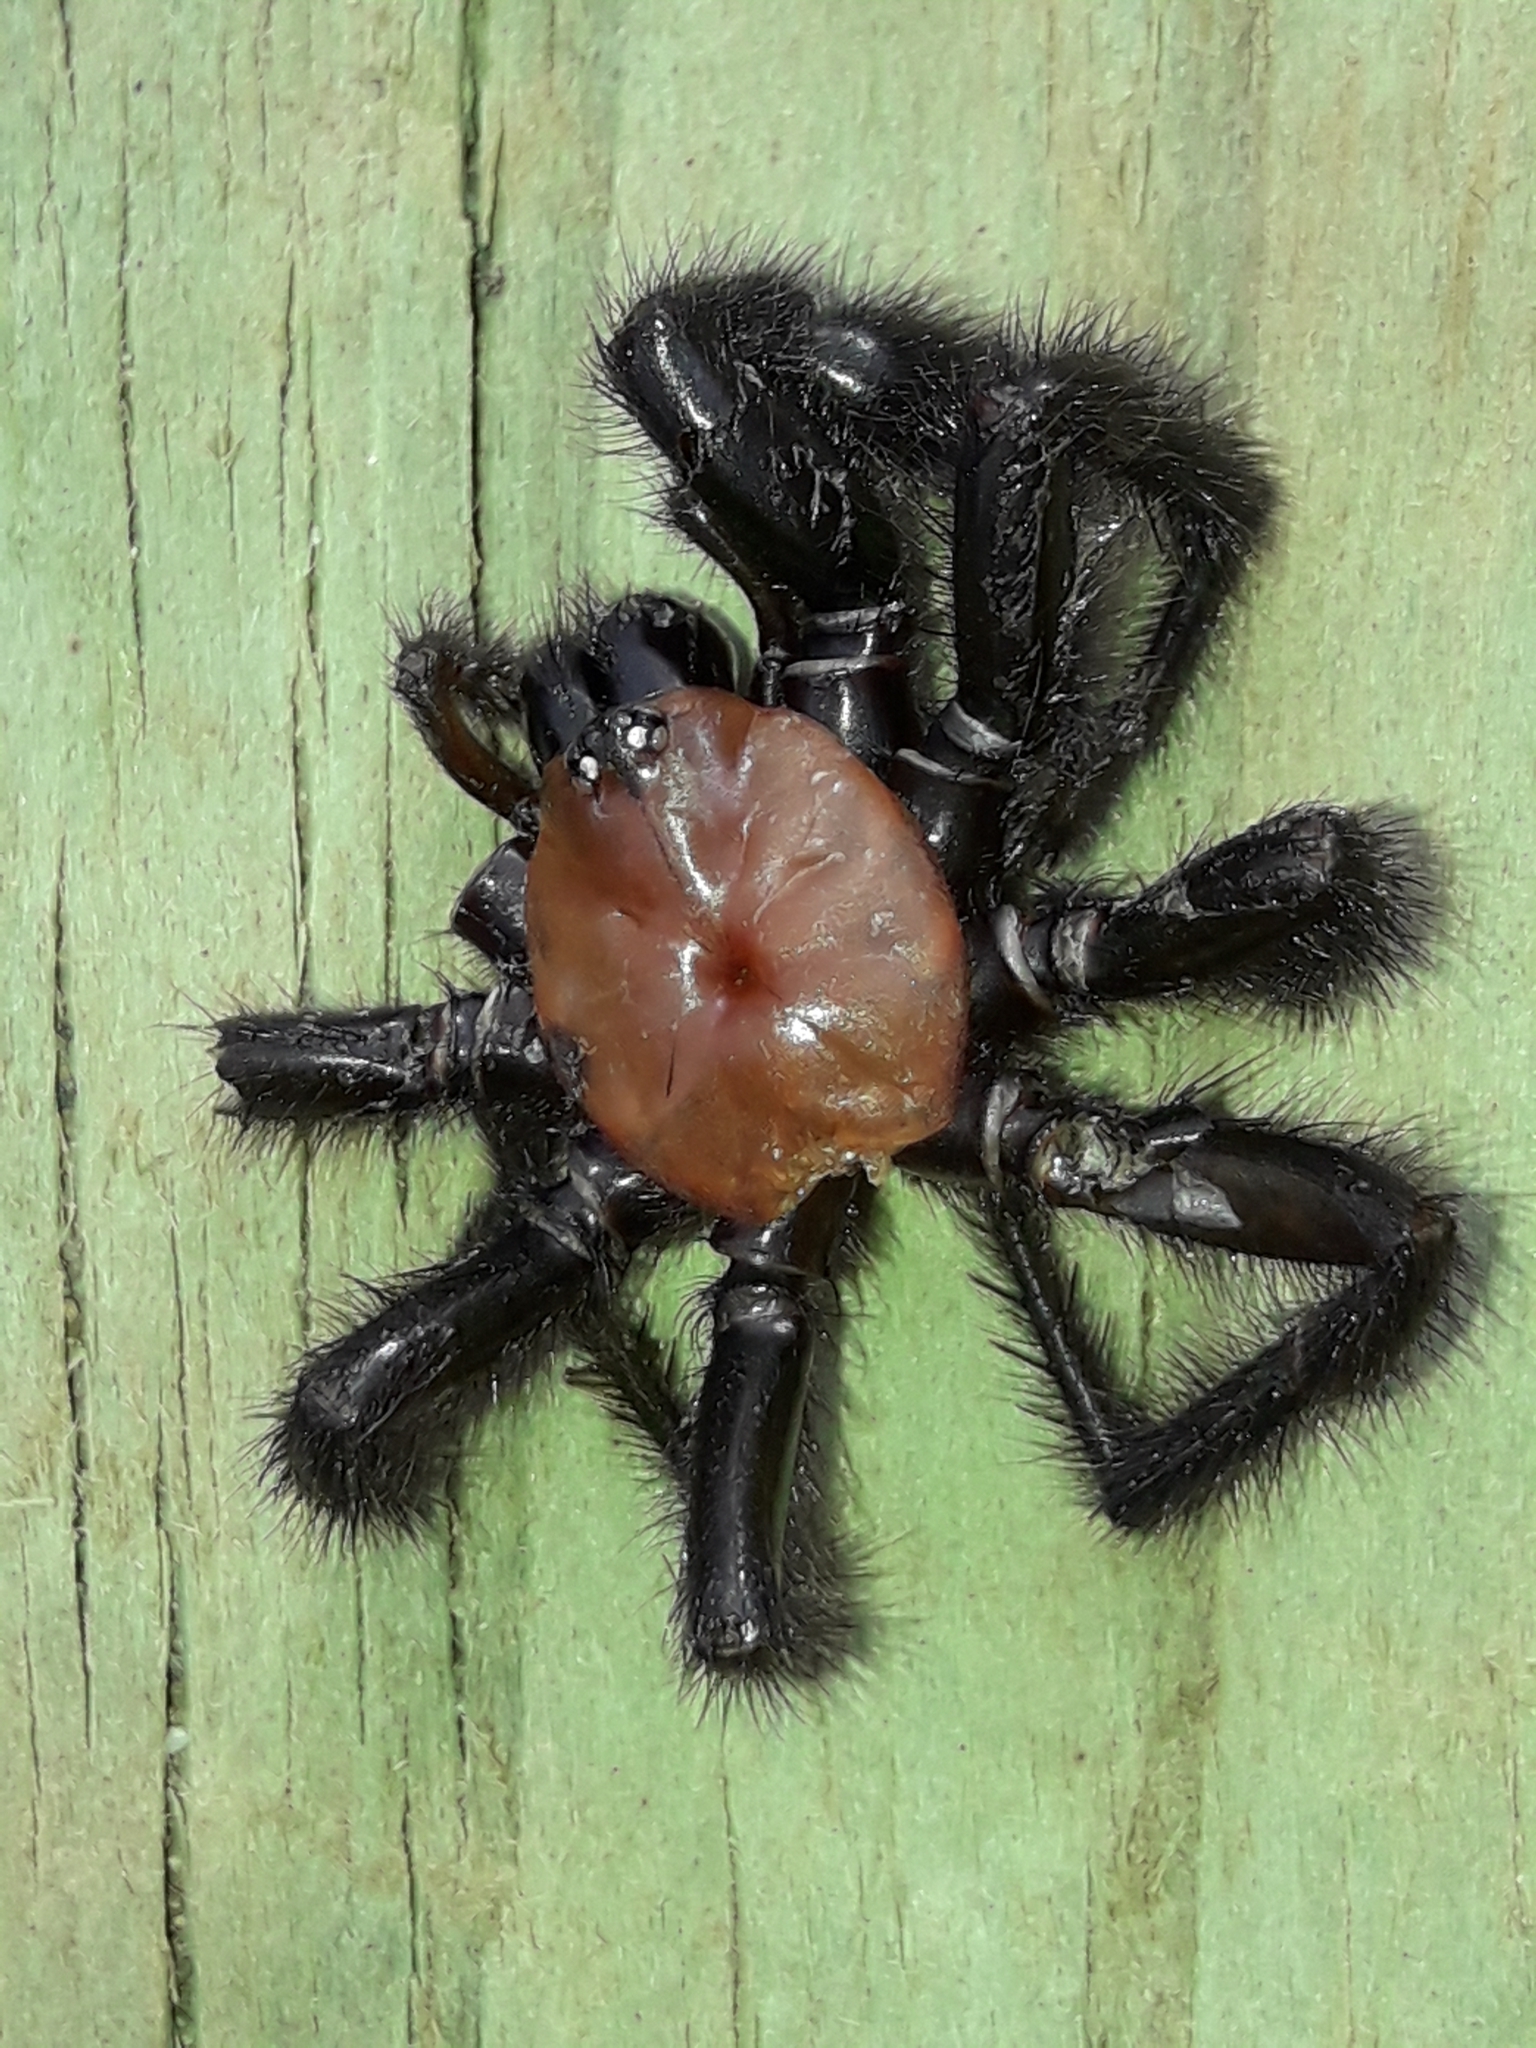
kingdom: Animalia
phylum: Arthropoda
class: Arachnida
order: Araneae
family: Porrhothelidae
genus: Porrhothele
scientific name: Porrhothele antipodiana
